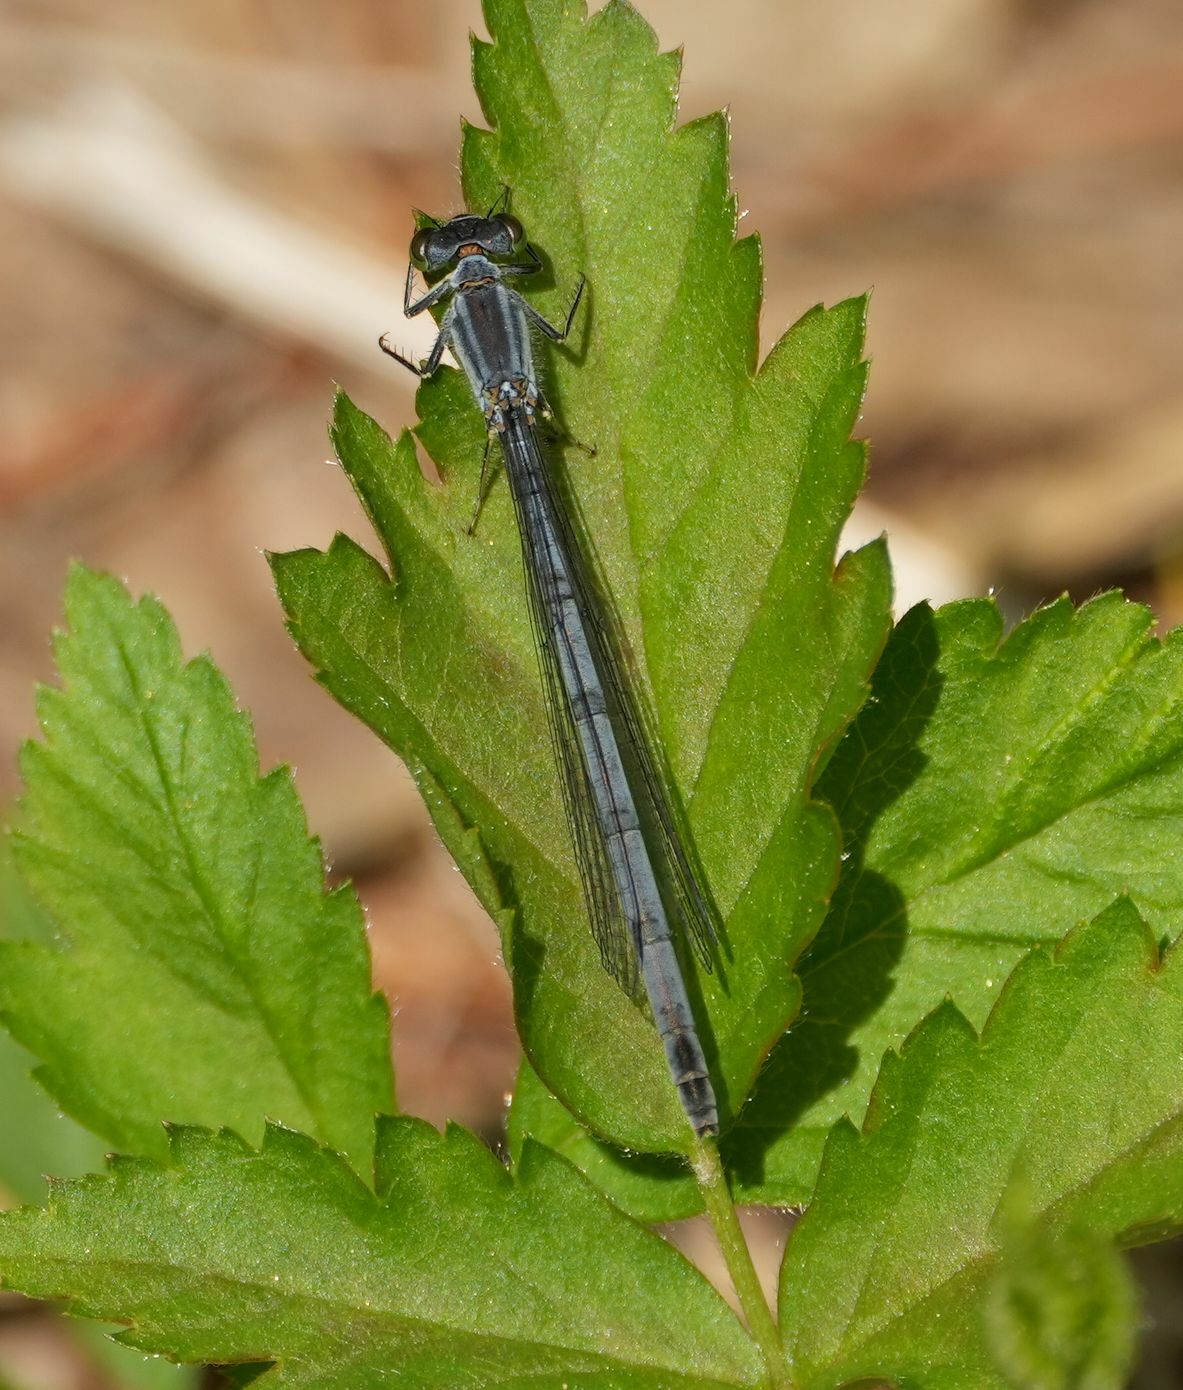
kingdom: Animalia
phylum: Arthropoda
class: Insecta
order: Odonata
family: Coenagrionidae
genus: Ischnura
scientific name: Ischnura verticalis
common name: Eastern forktail
